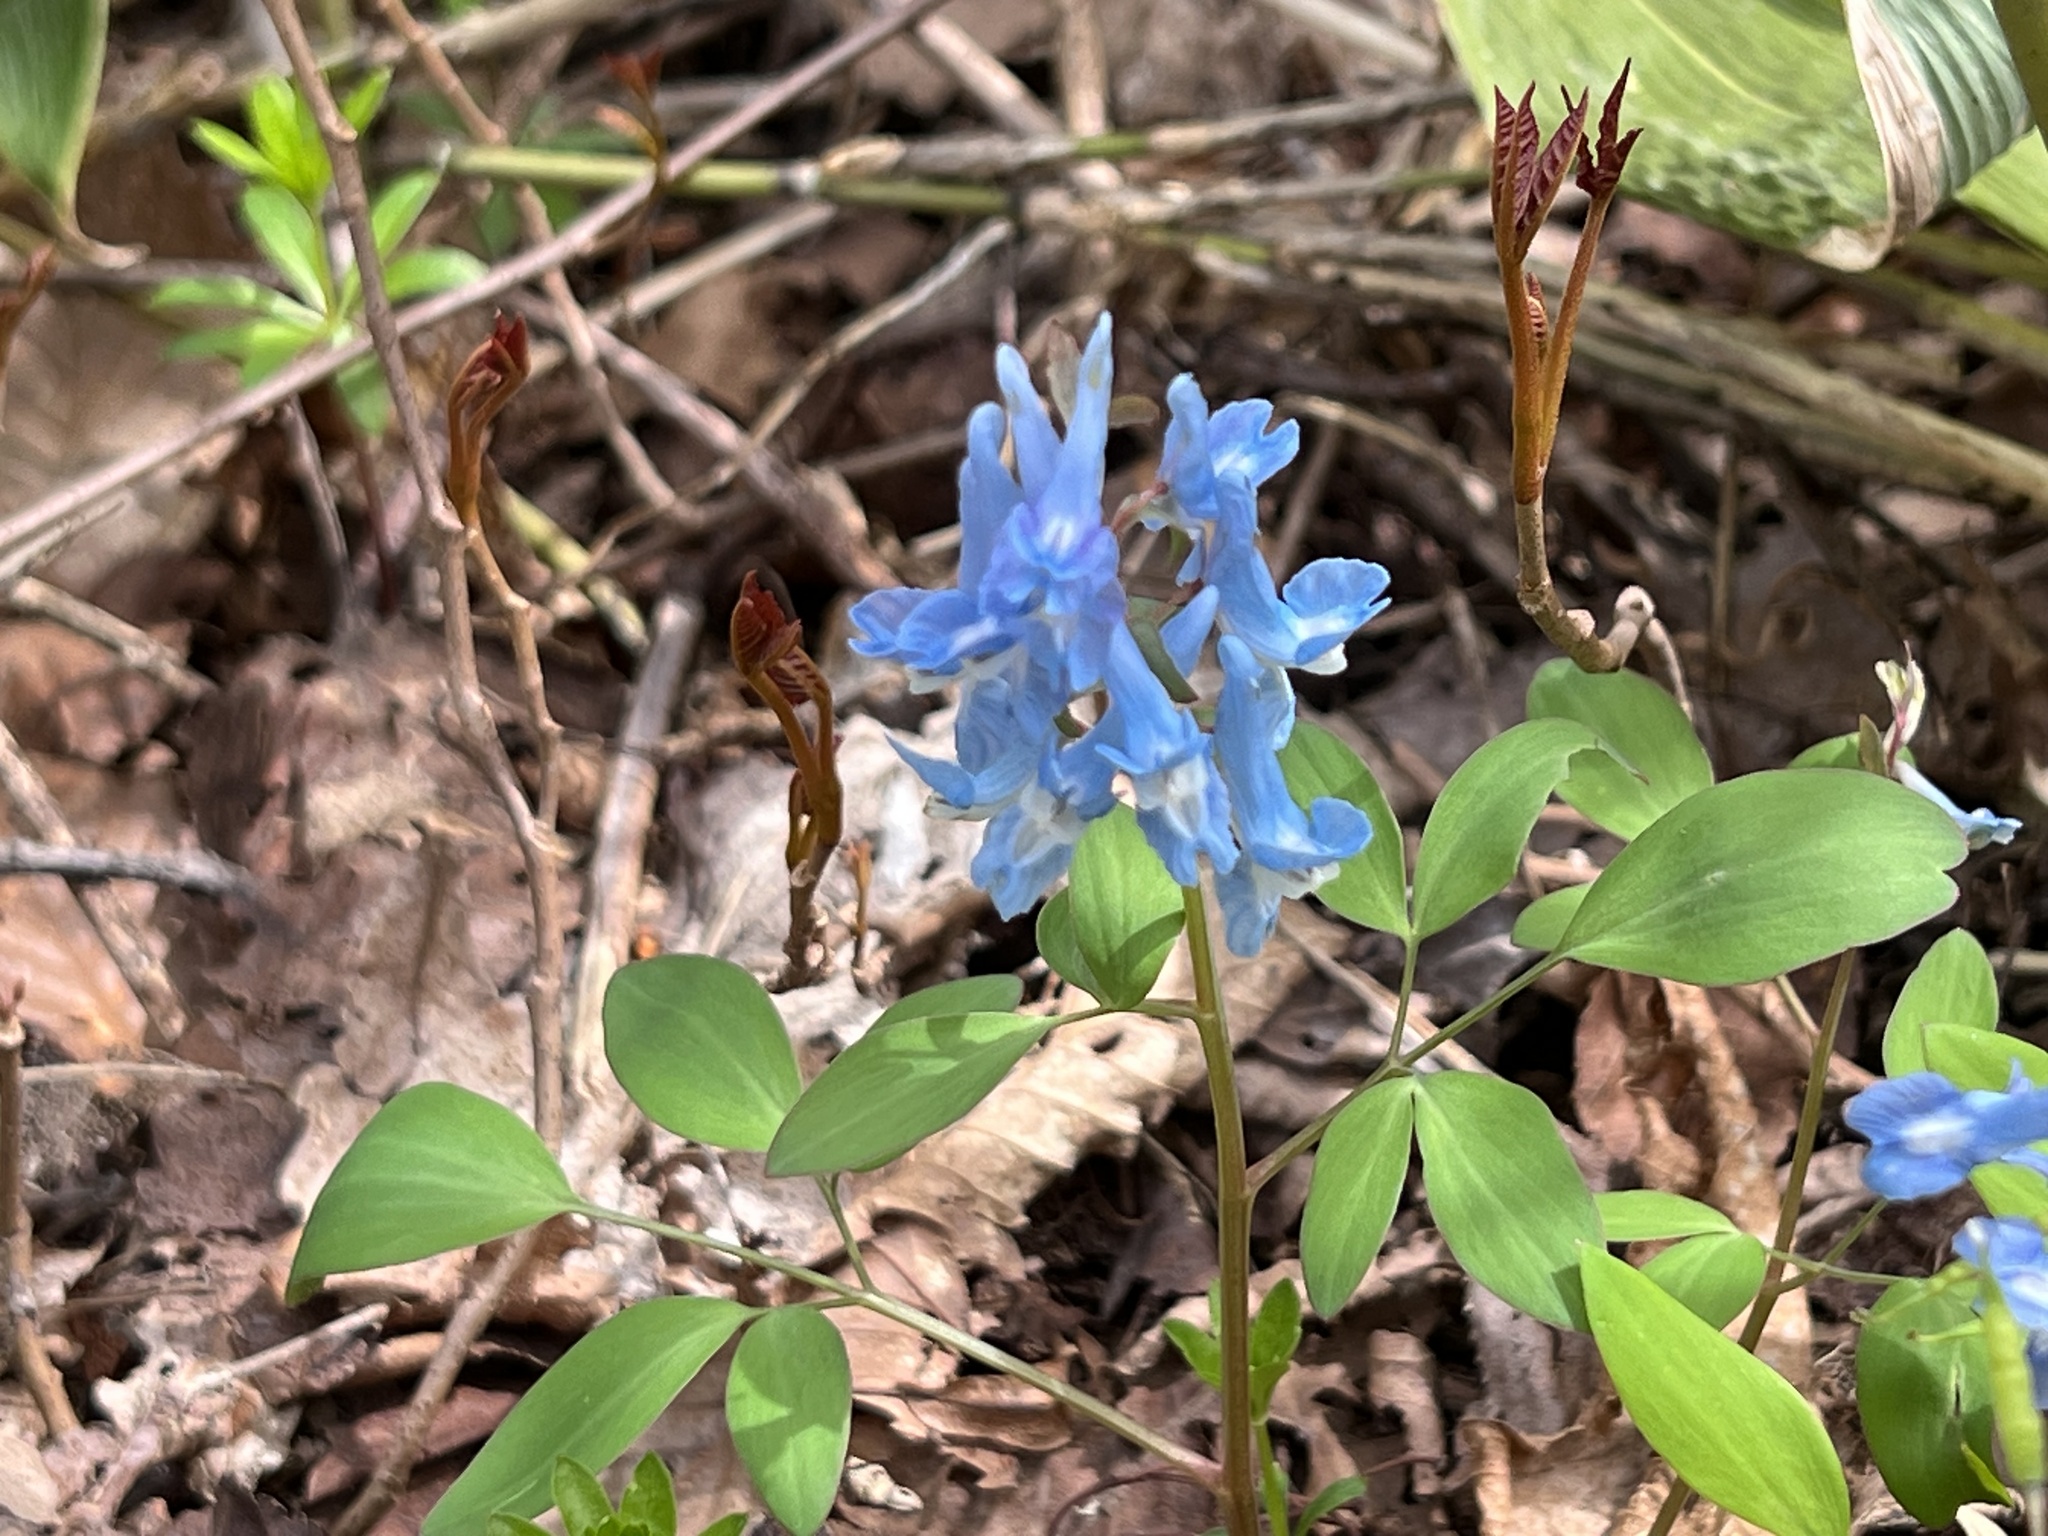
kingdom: Plantae
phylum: Tracheophyta
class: Magnoliopsida
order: Ranunculales
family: Papaveraceae
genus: Corydalis
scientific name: Corydalis fumariifolia
